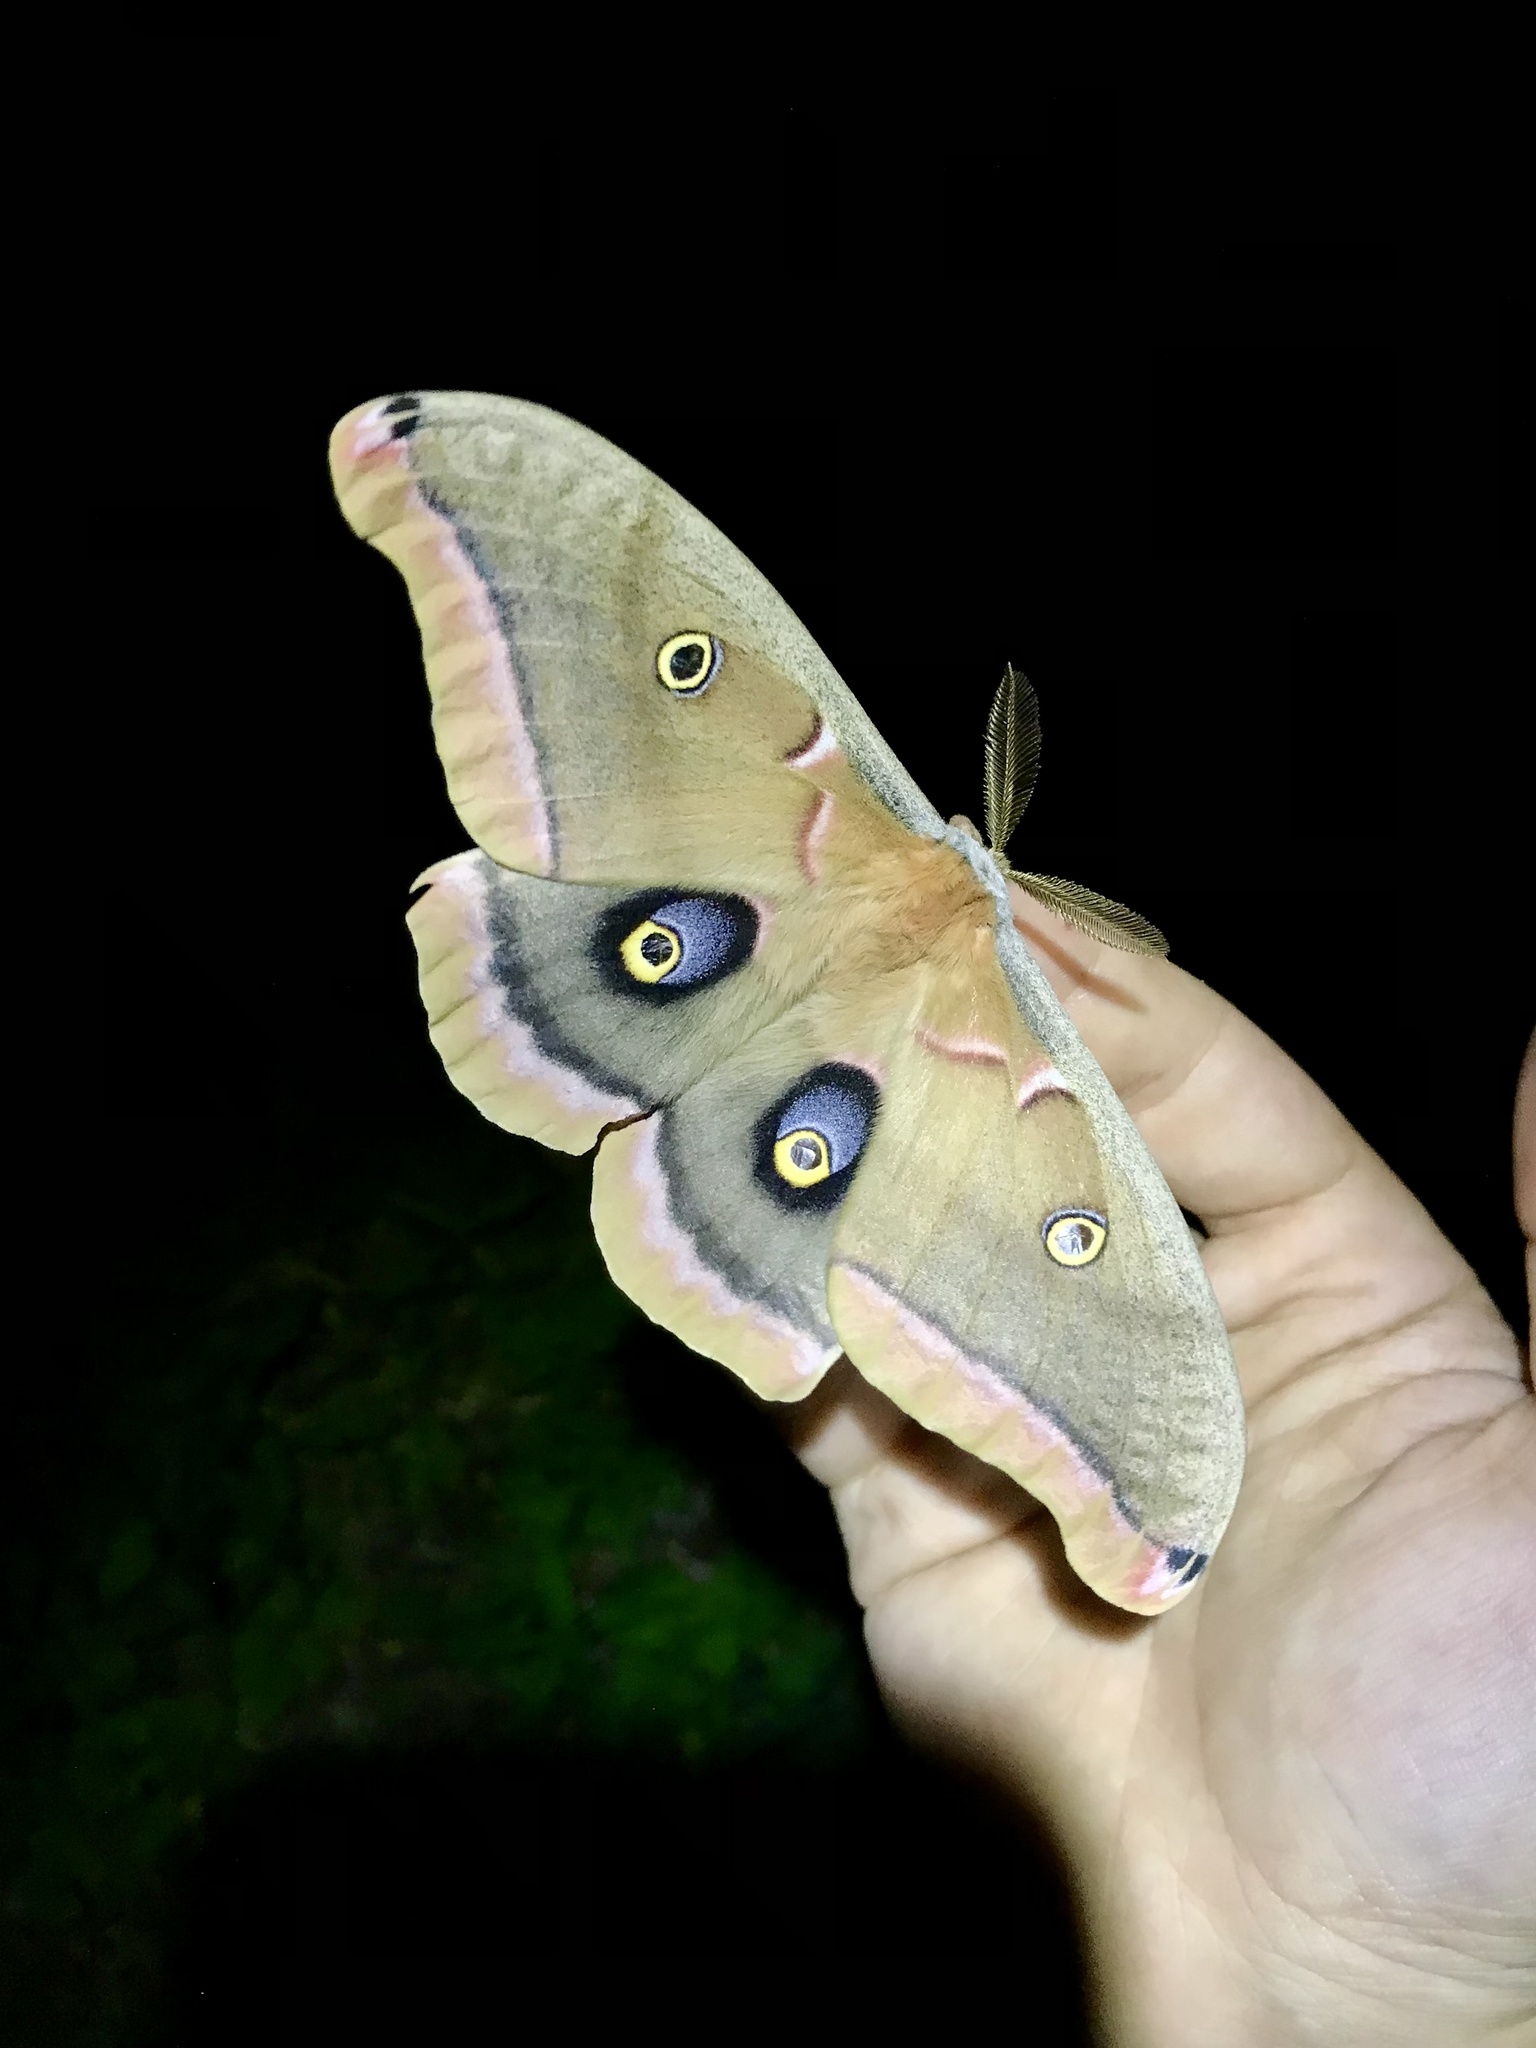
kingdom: Animalia
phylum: Arthropoda
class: Insecta
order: Lepidoptera
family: Saturniidae
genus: Antheraea
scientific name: Antheraea polyphemus
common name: Polyphemus moth
